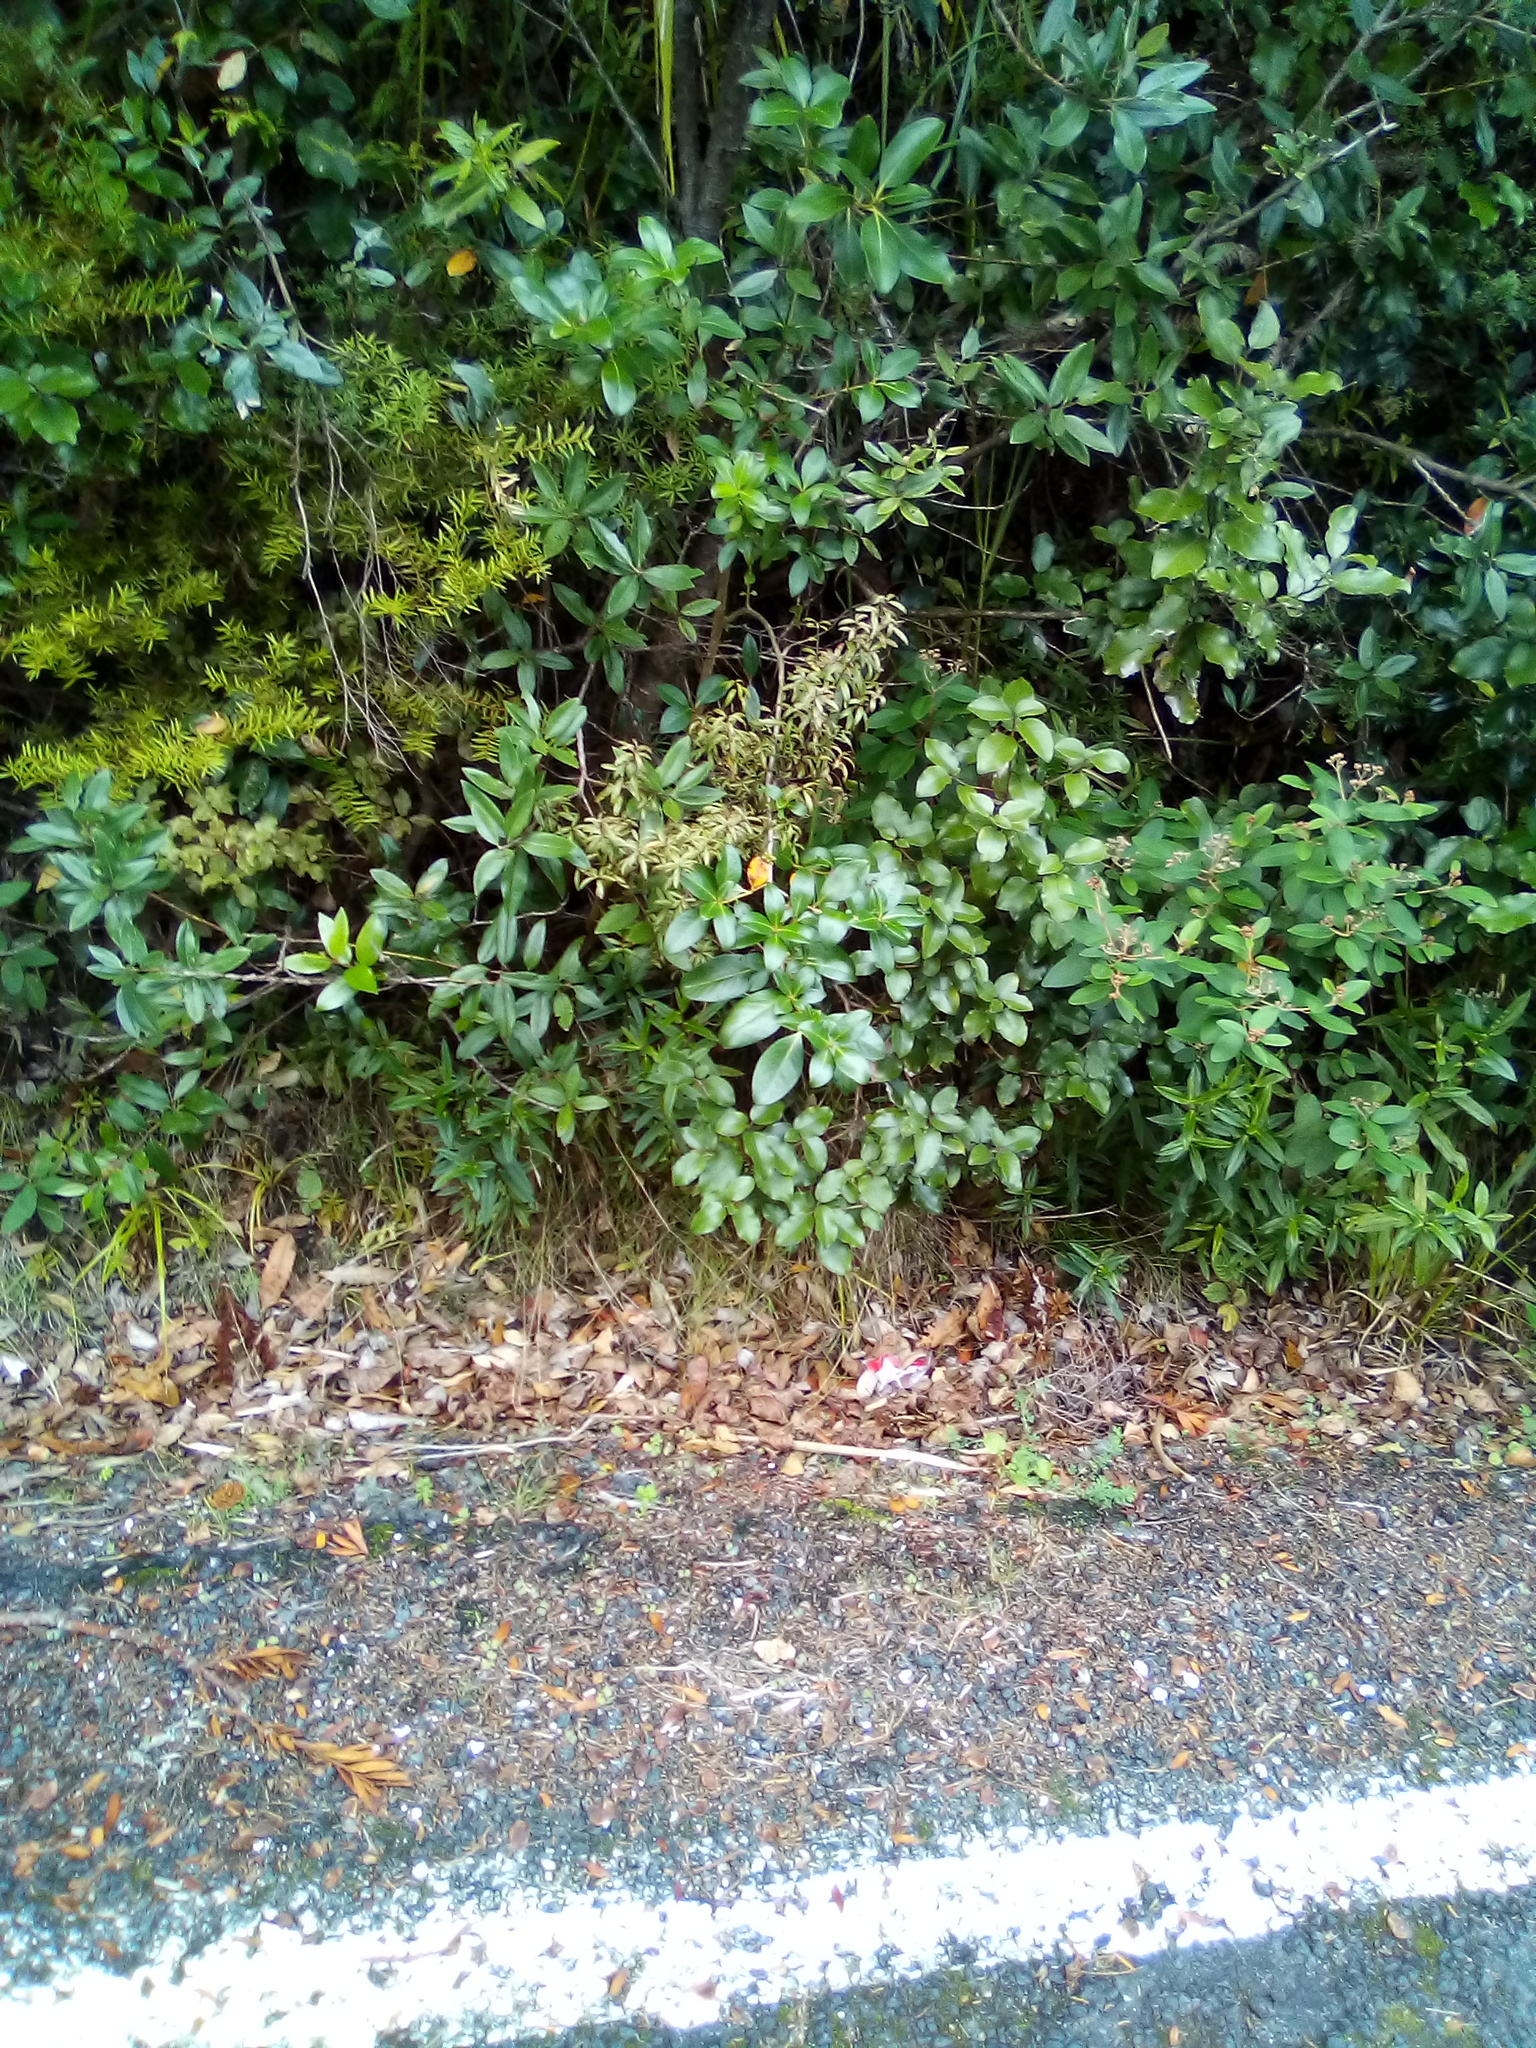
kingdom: Plantae
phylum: Tracheophyta
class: Magnoliopsida
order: Sapindales
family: Rutaceae
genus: Leionema
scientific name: Leionema nudum
